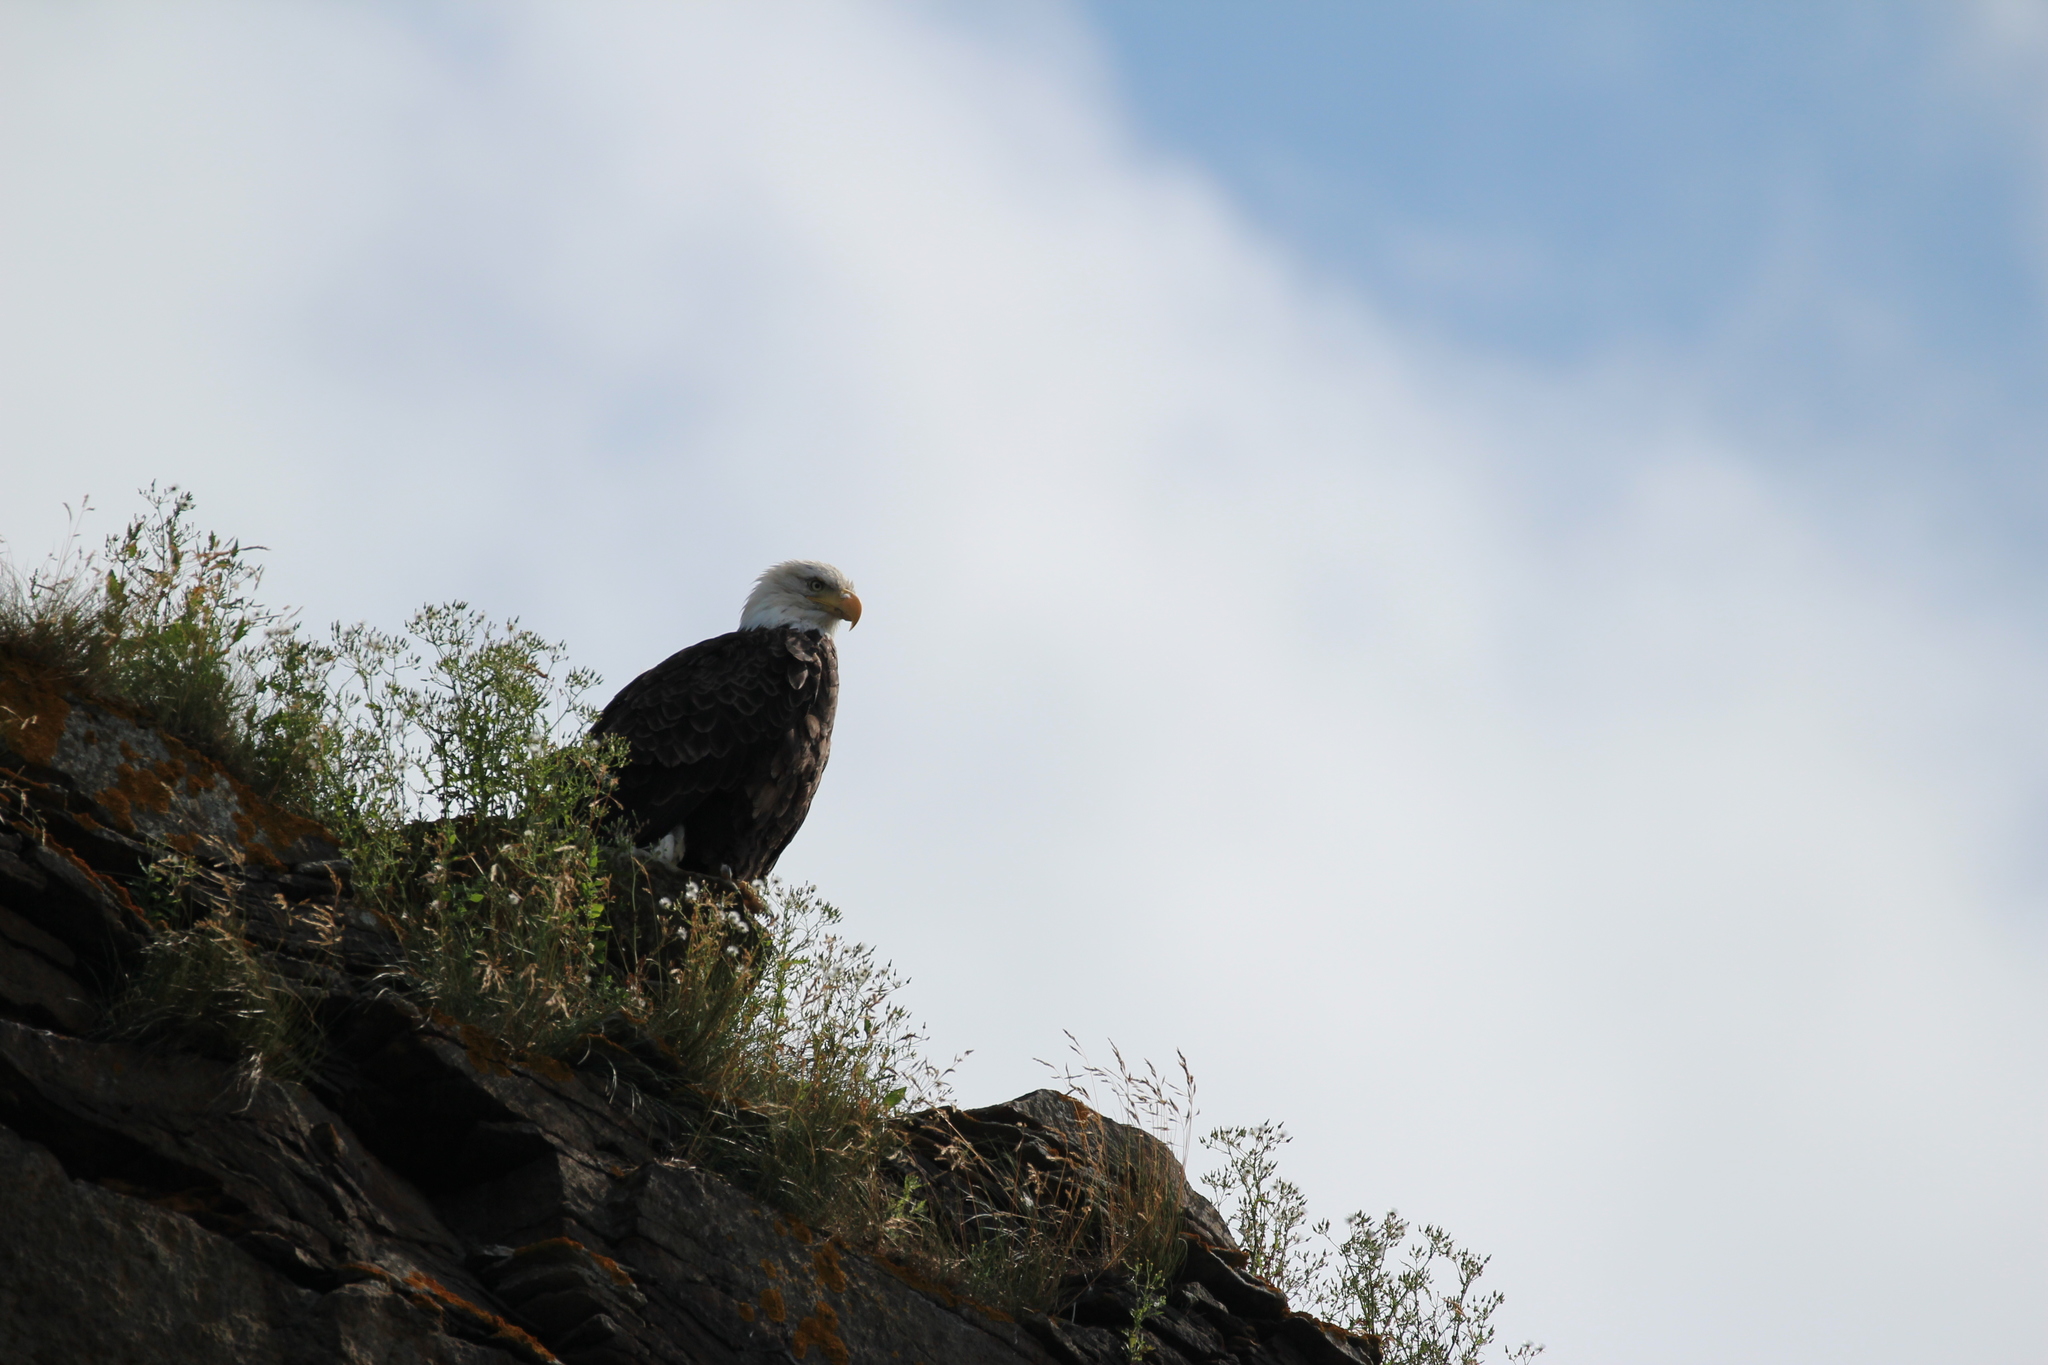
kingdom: Animalia
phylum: Chordata
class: Aves
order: Accipitriformes
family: Accipitridae
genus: Haliaeetus
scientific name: Haliaeetus leucocephalus
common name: Bald eagle
